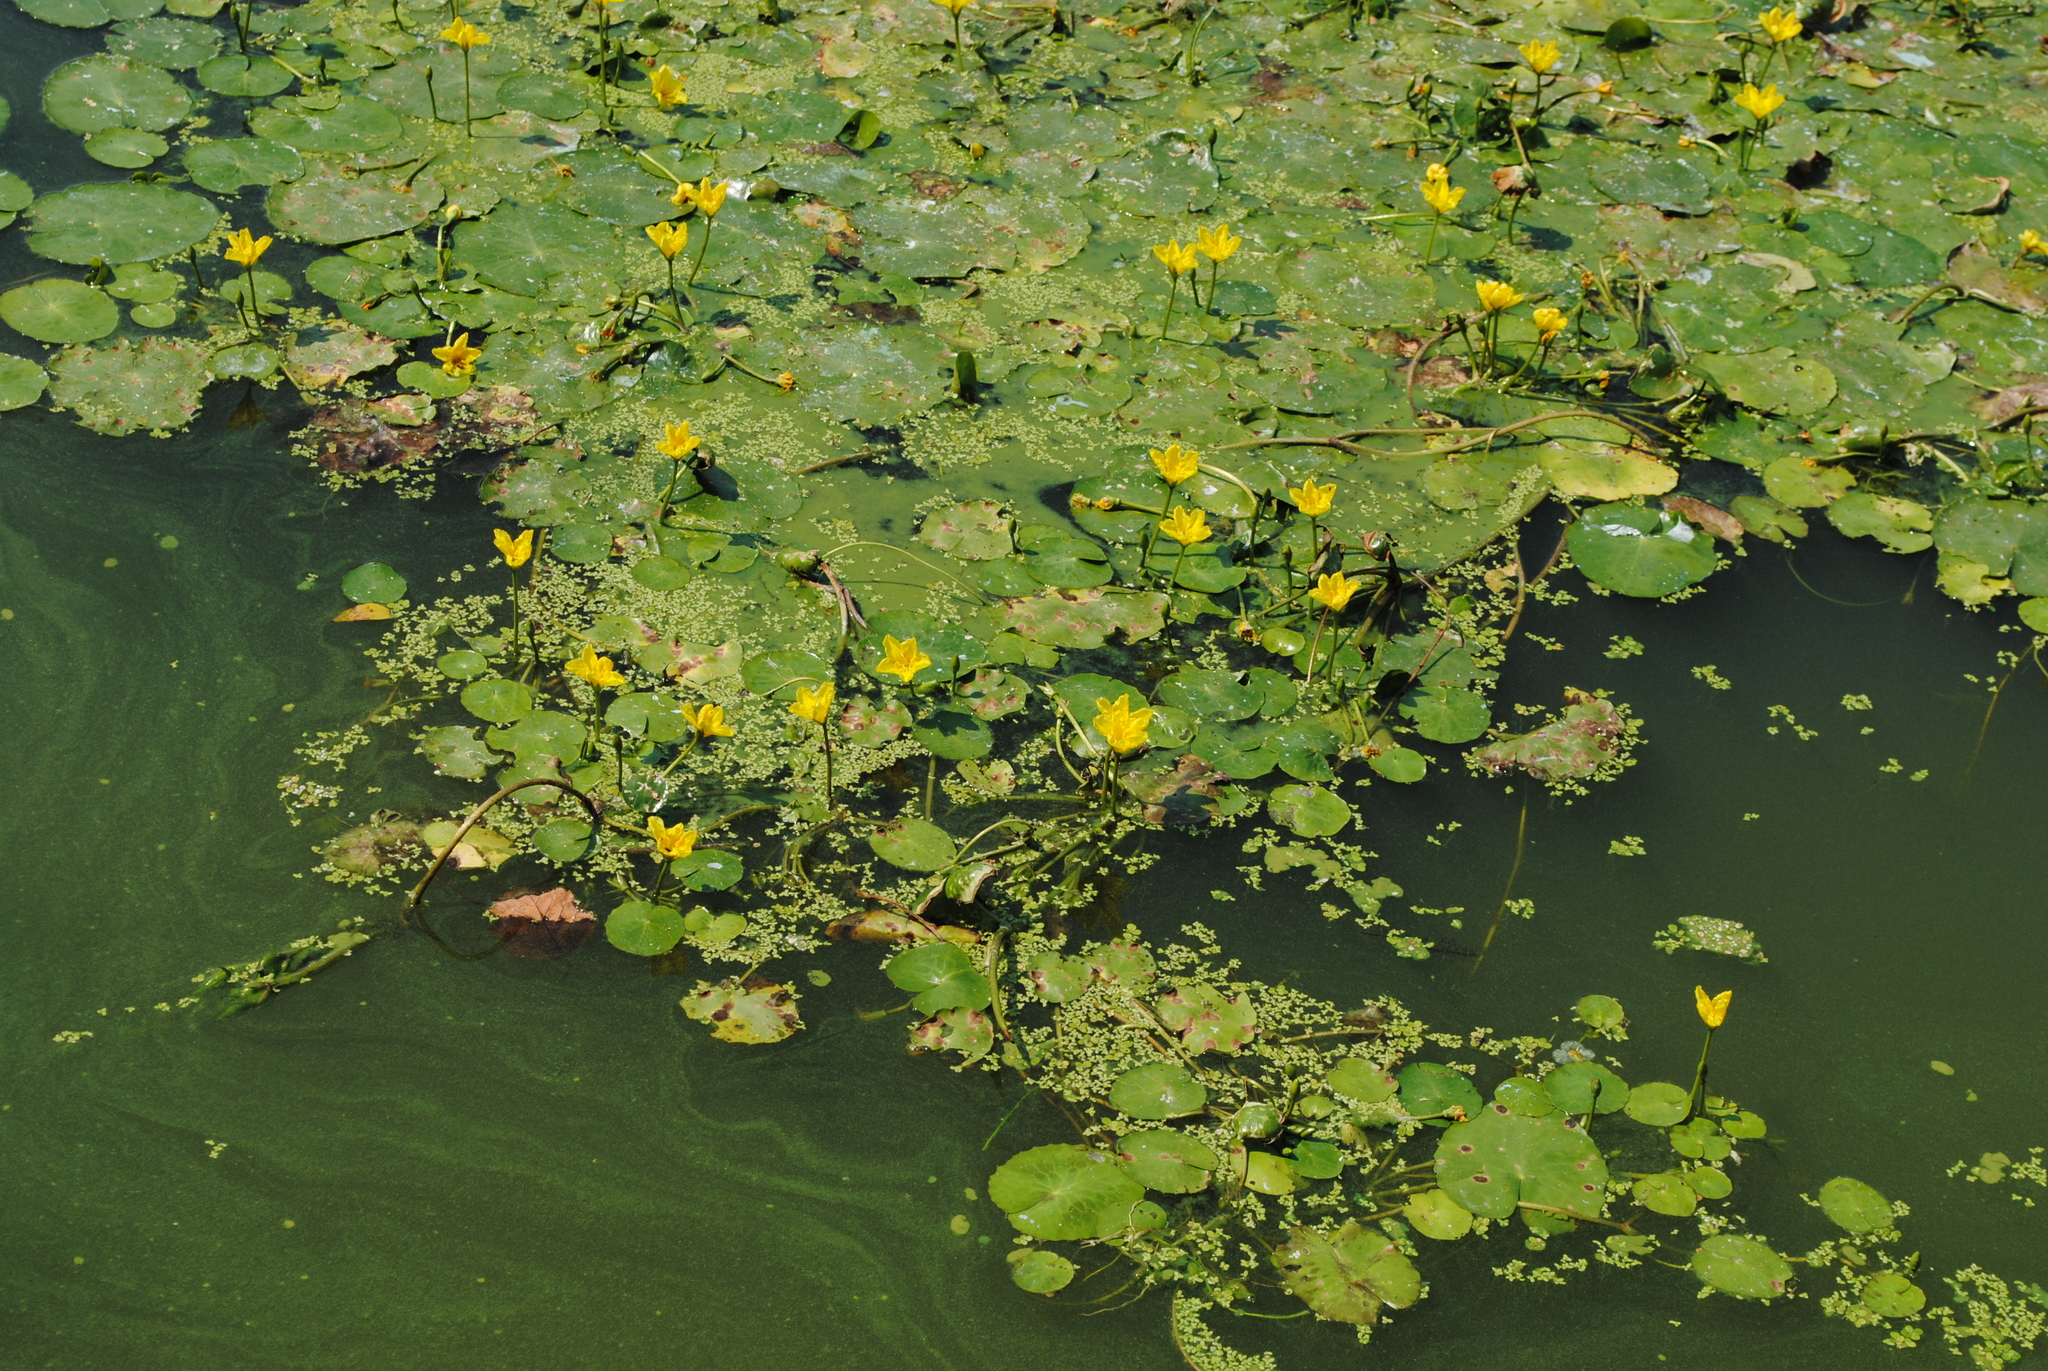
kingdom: Plantae
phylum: Tracheophyta
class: Magnoliopsida
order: Asterales
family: Menyanthaceae
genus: Nymphoides
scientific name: Nymphoides peltata
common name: Fringed water-lily
